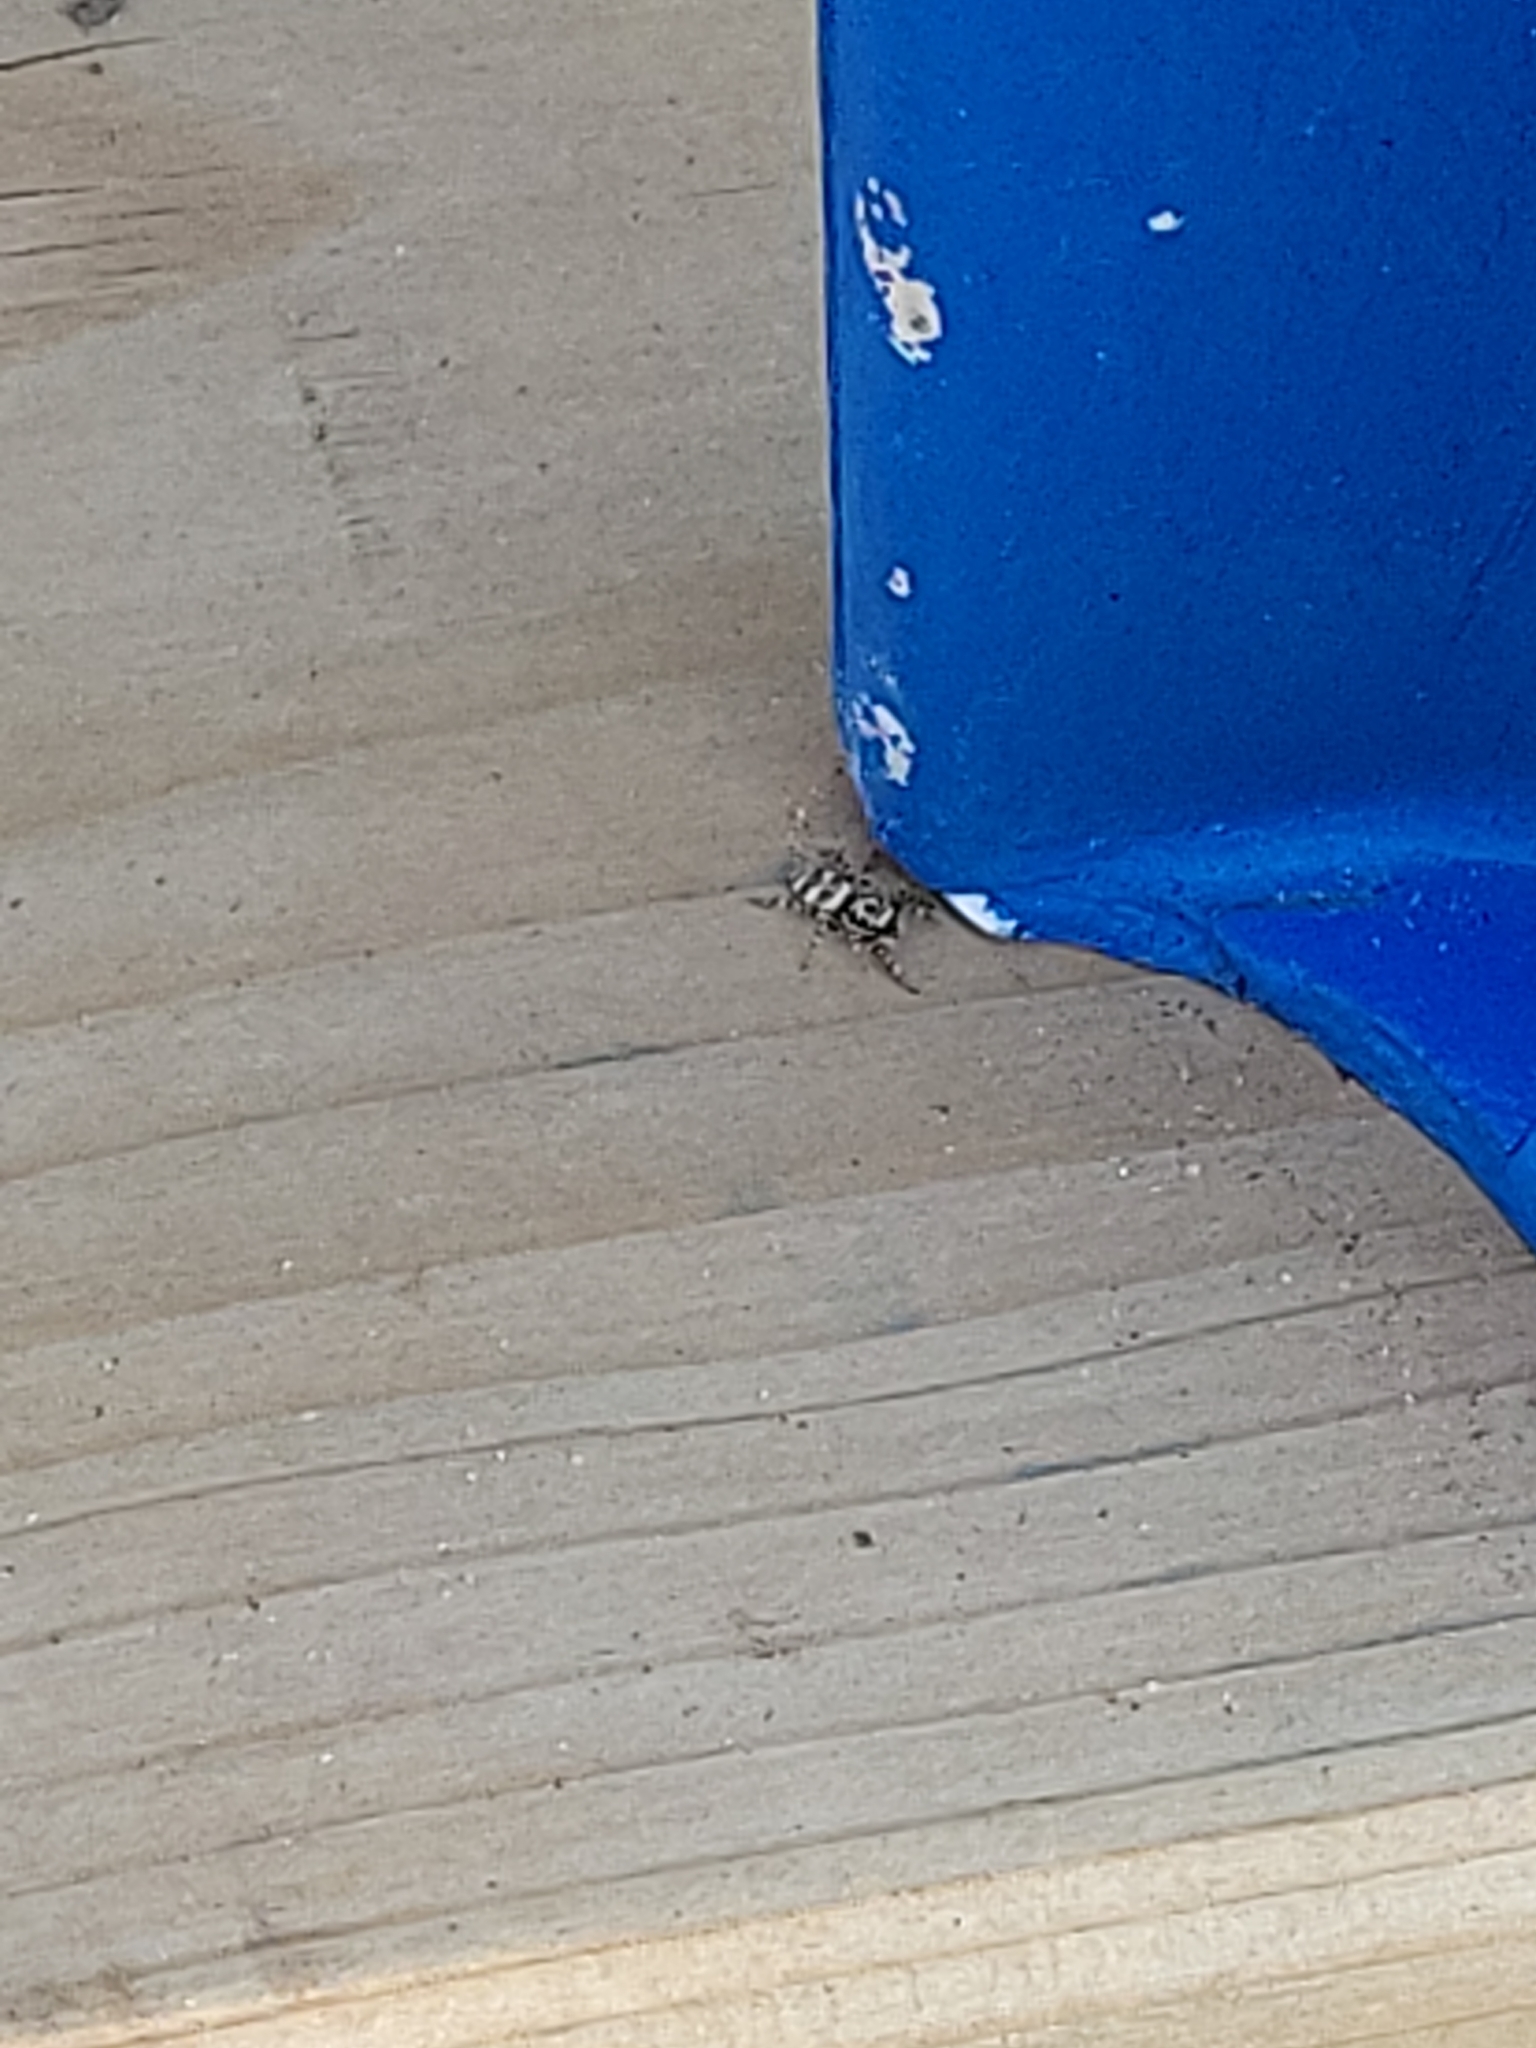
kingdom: Animalia
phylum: Arthropoda
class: Arachnida
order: Araneae
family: Salticidae
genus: Salticus
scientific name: Salticus scenicus
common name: Zebra jumper
